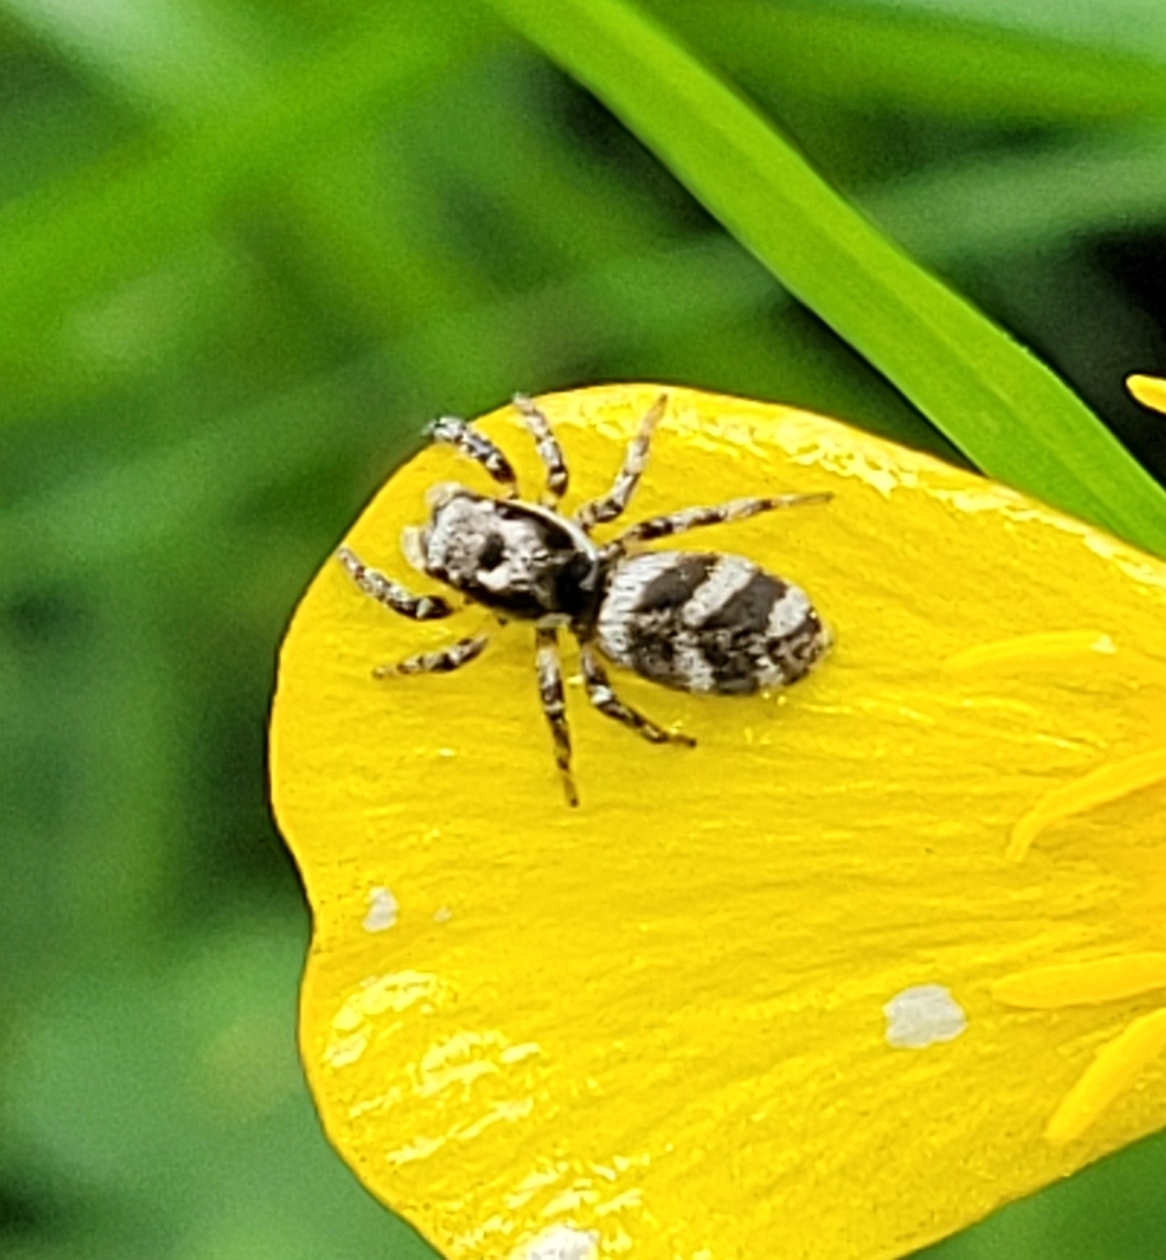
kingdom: Animalia
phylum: Arthropoda
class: Arachnida
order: Araneae
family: Salticidae
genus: Salticus
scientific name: Salticus scenicus
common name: Zebra jumper
